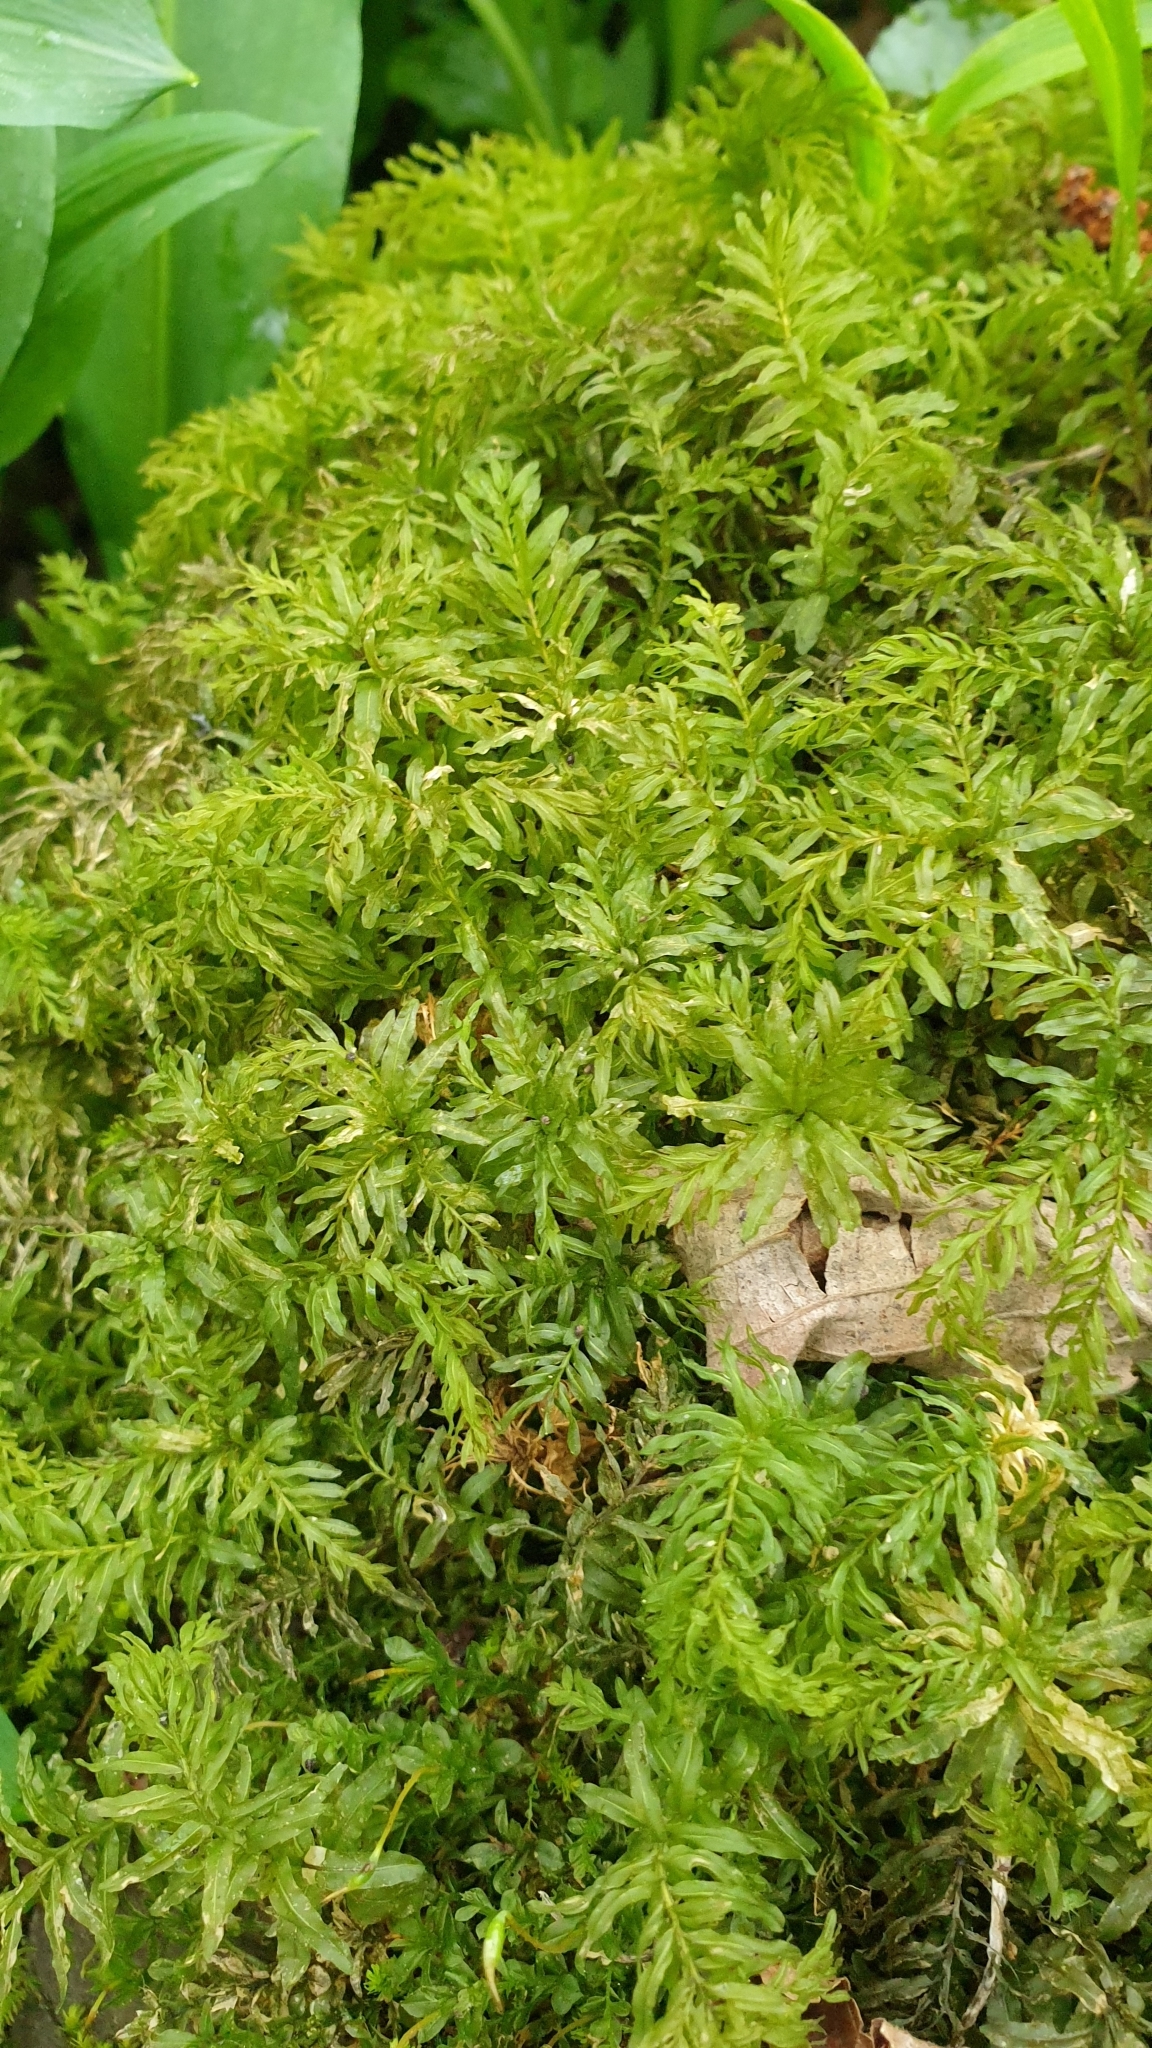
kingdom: Plantae
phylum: Bryophyta
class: Bryopsida
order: Bryales
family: Mniaceae
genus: Plagiomnium
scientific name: Plagiomnium undulatum
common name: Hart's-tongue thyme-moss
